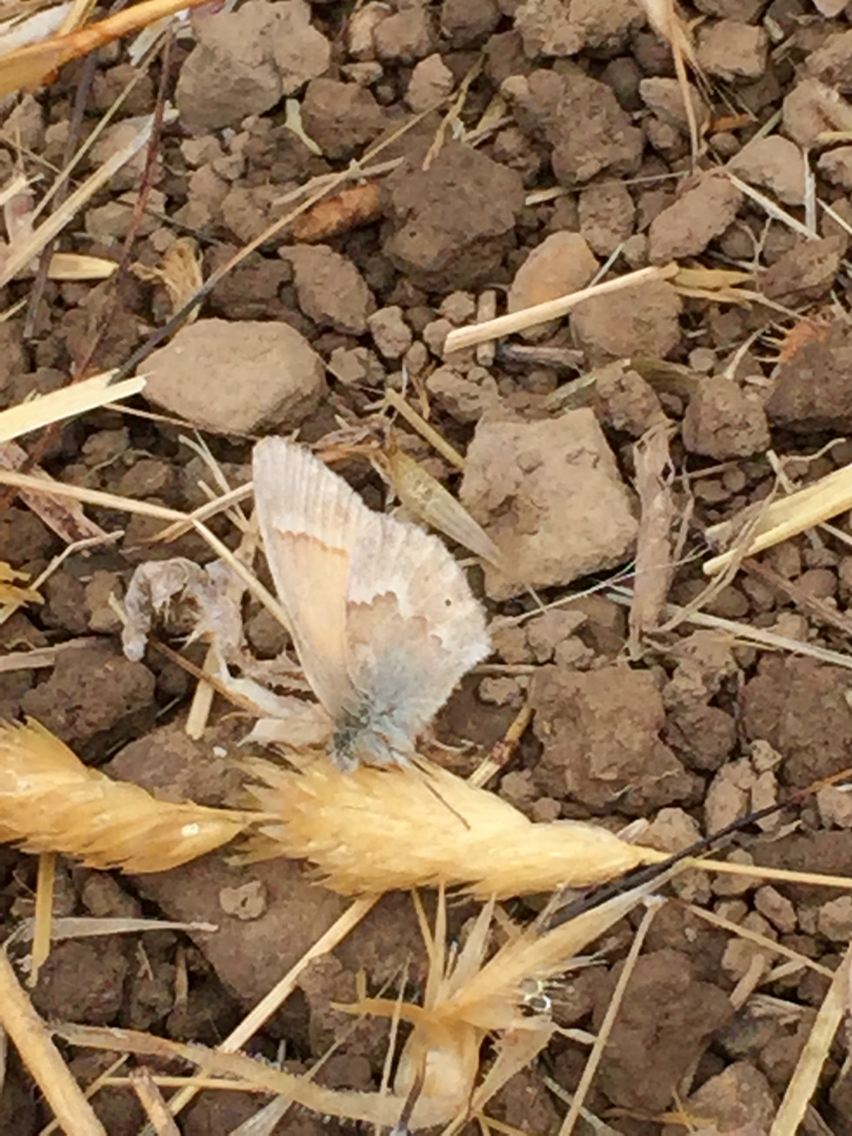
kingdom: Animalia
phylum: Arthropoda
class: Insecta
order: Lepidoptera
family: Nymphalidae
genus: Coenonympha
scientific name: Coenonympha california
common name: Common ringlet
